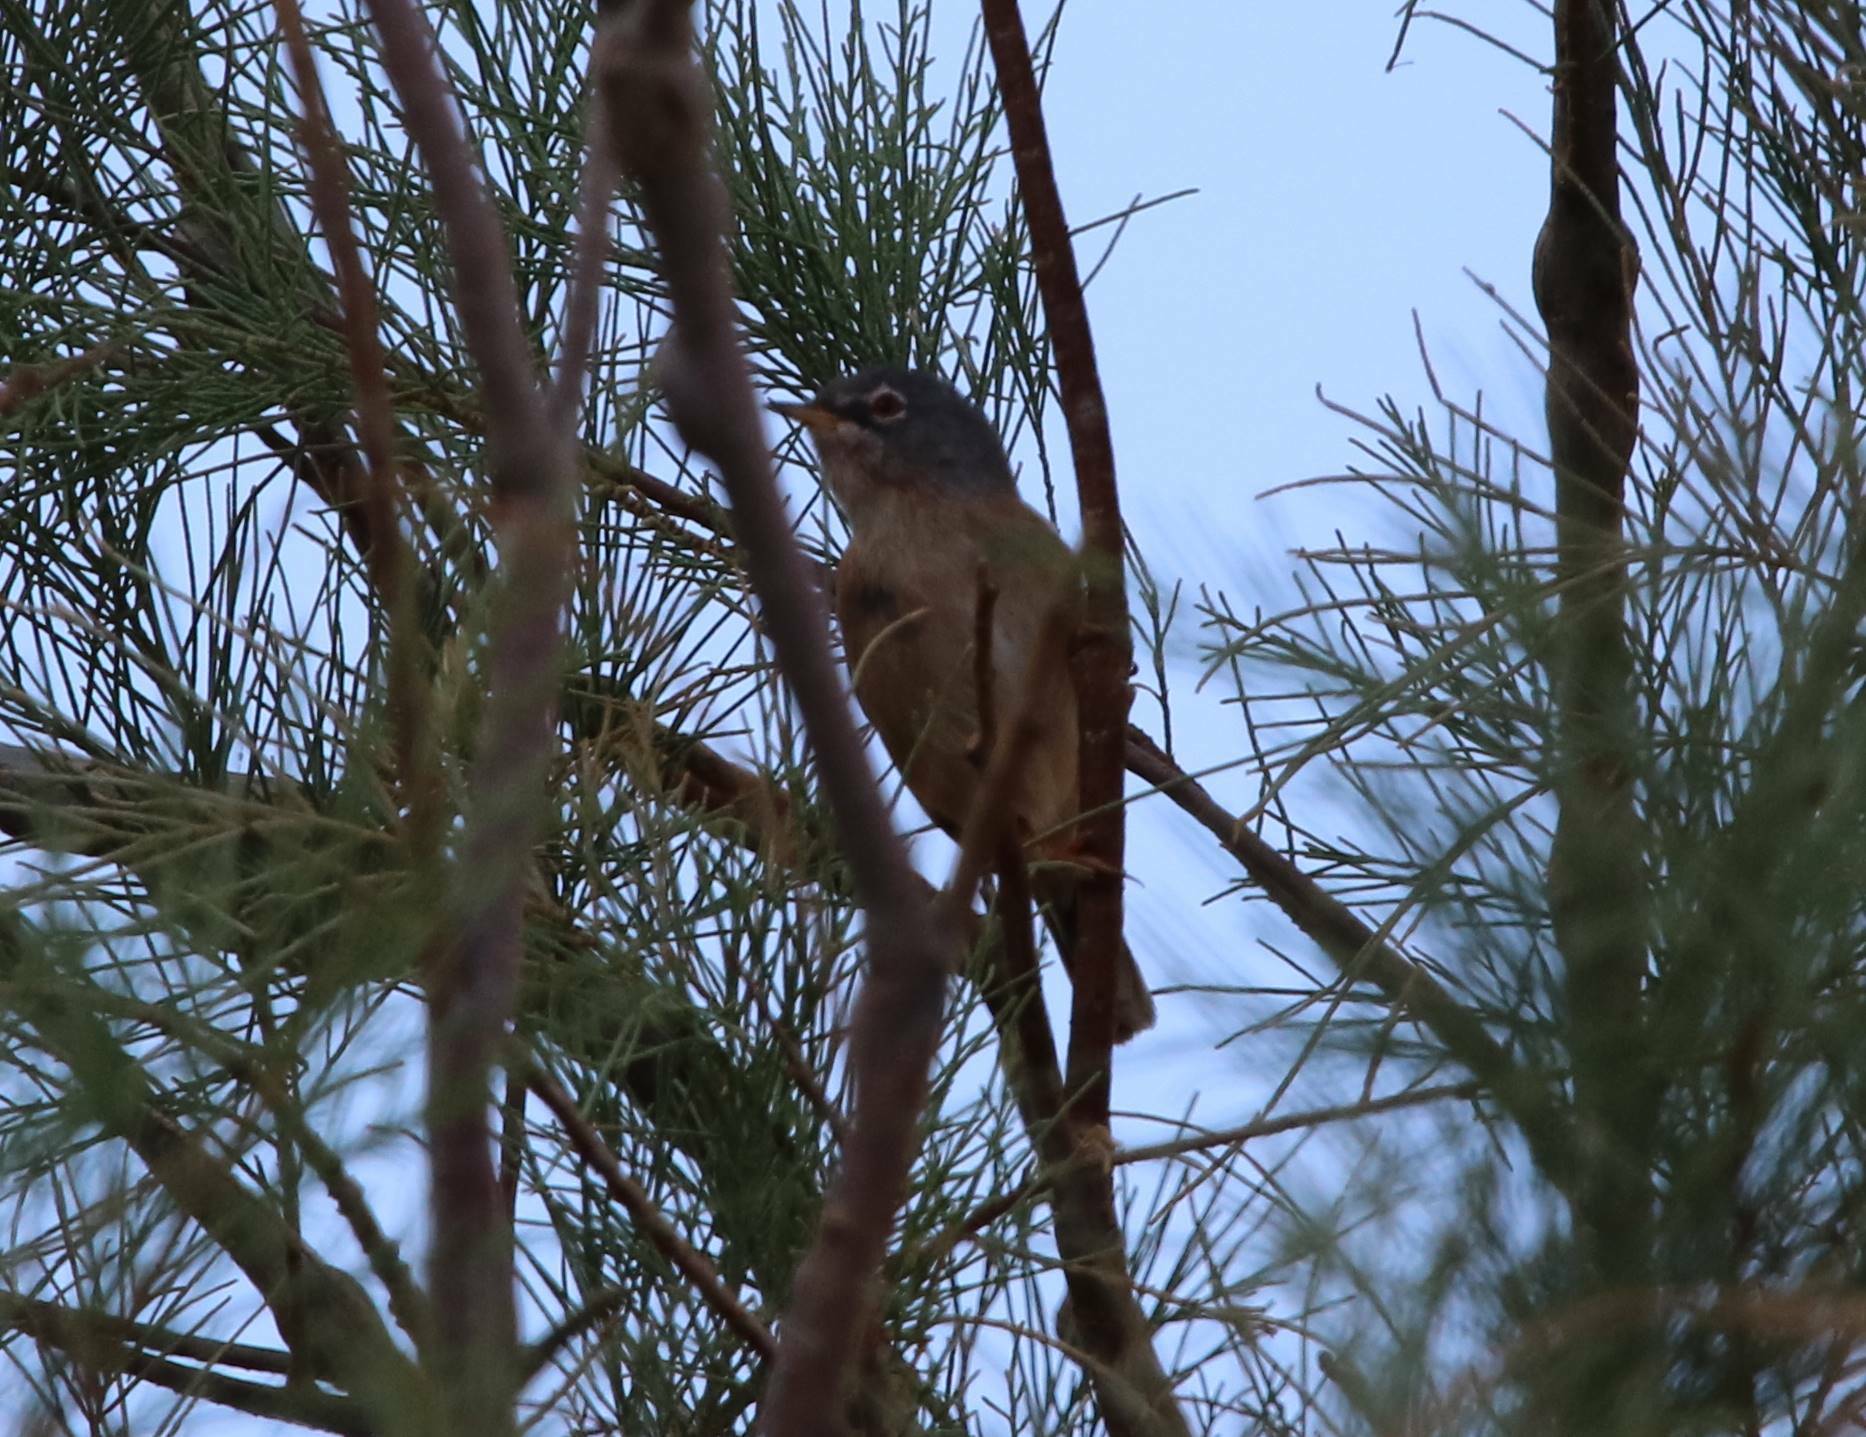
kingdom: Animalia
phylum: Chordata
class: Aves
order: Passeriformes
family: Sylviidae
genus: Sylvia
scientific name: Sylvia deserticola
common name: Tristram's warbler
